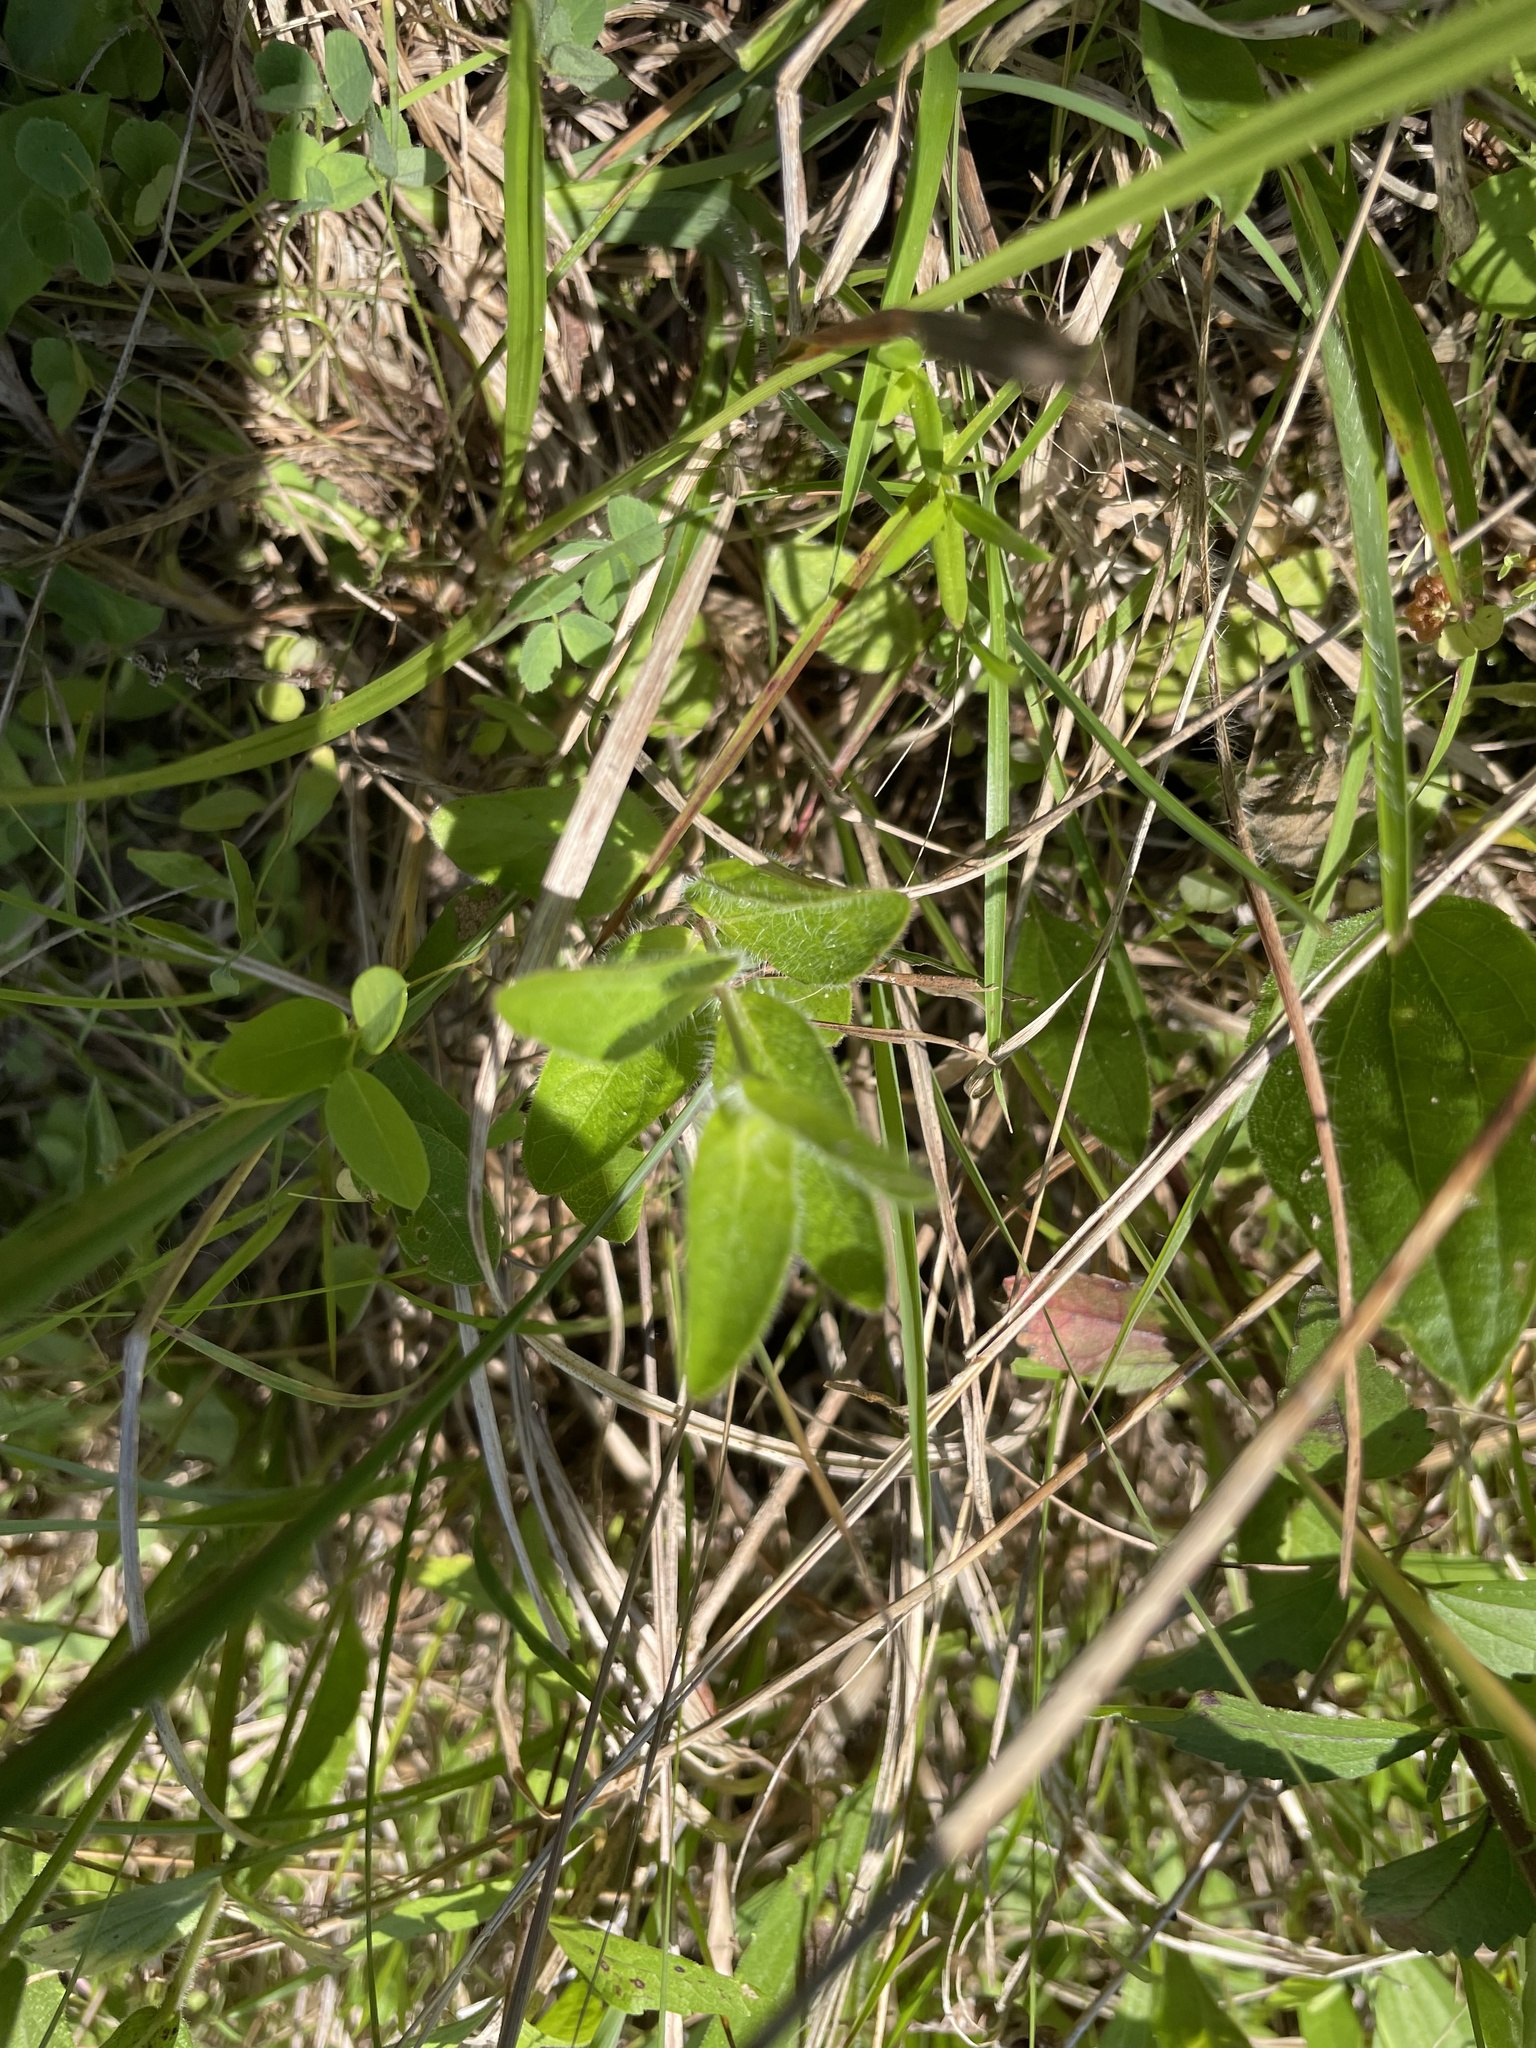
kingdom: Plantae
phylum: Tracheophyta
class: Magnoliopsida
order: Lamiales
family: Acanthaceae
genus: Ruellia
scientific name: Ruellia humilis
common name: Fringe-leaf ruellia
